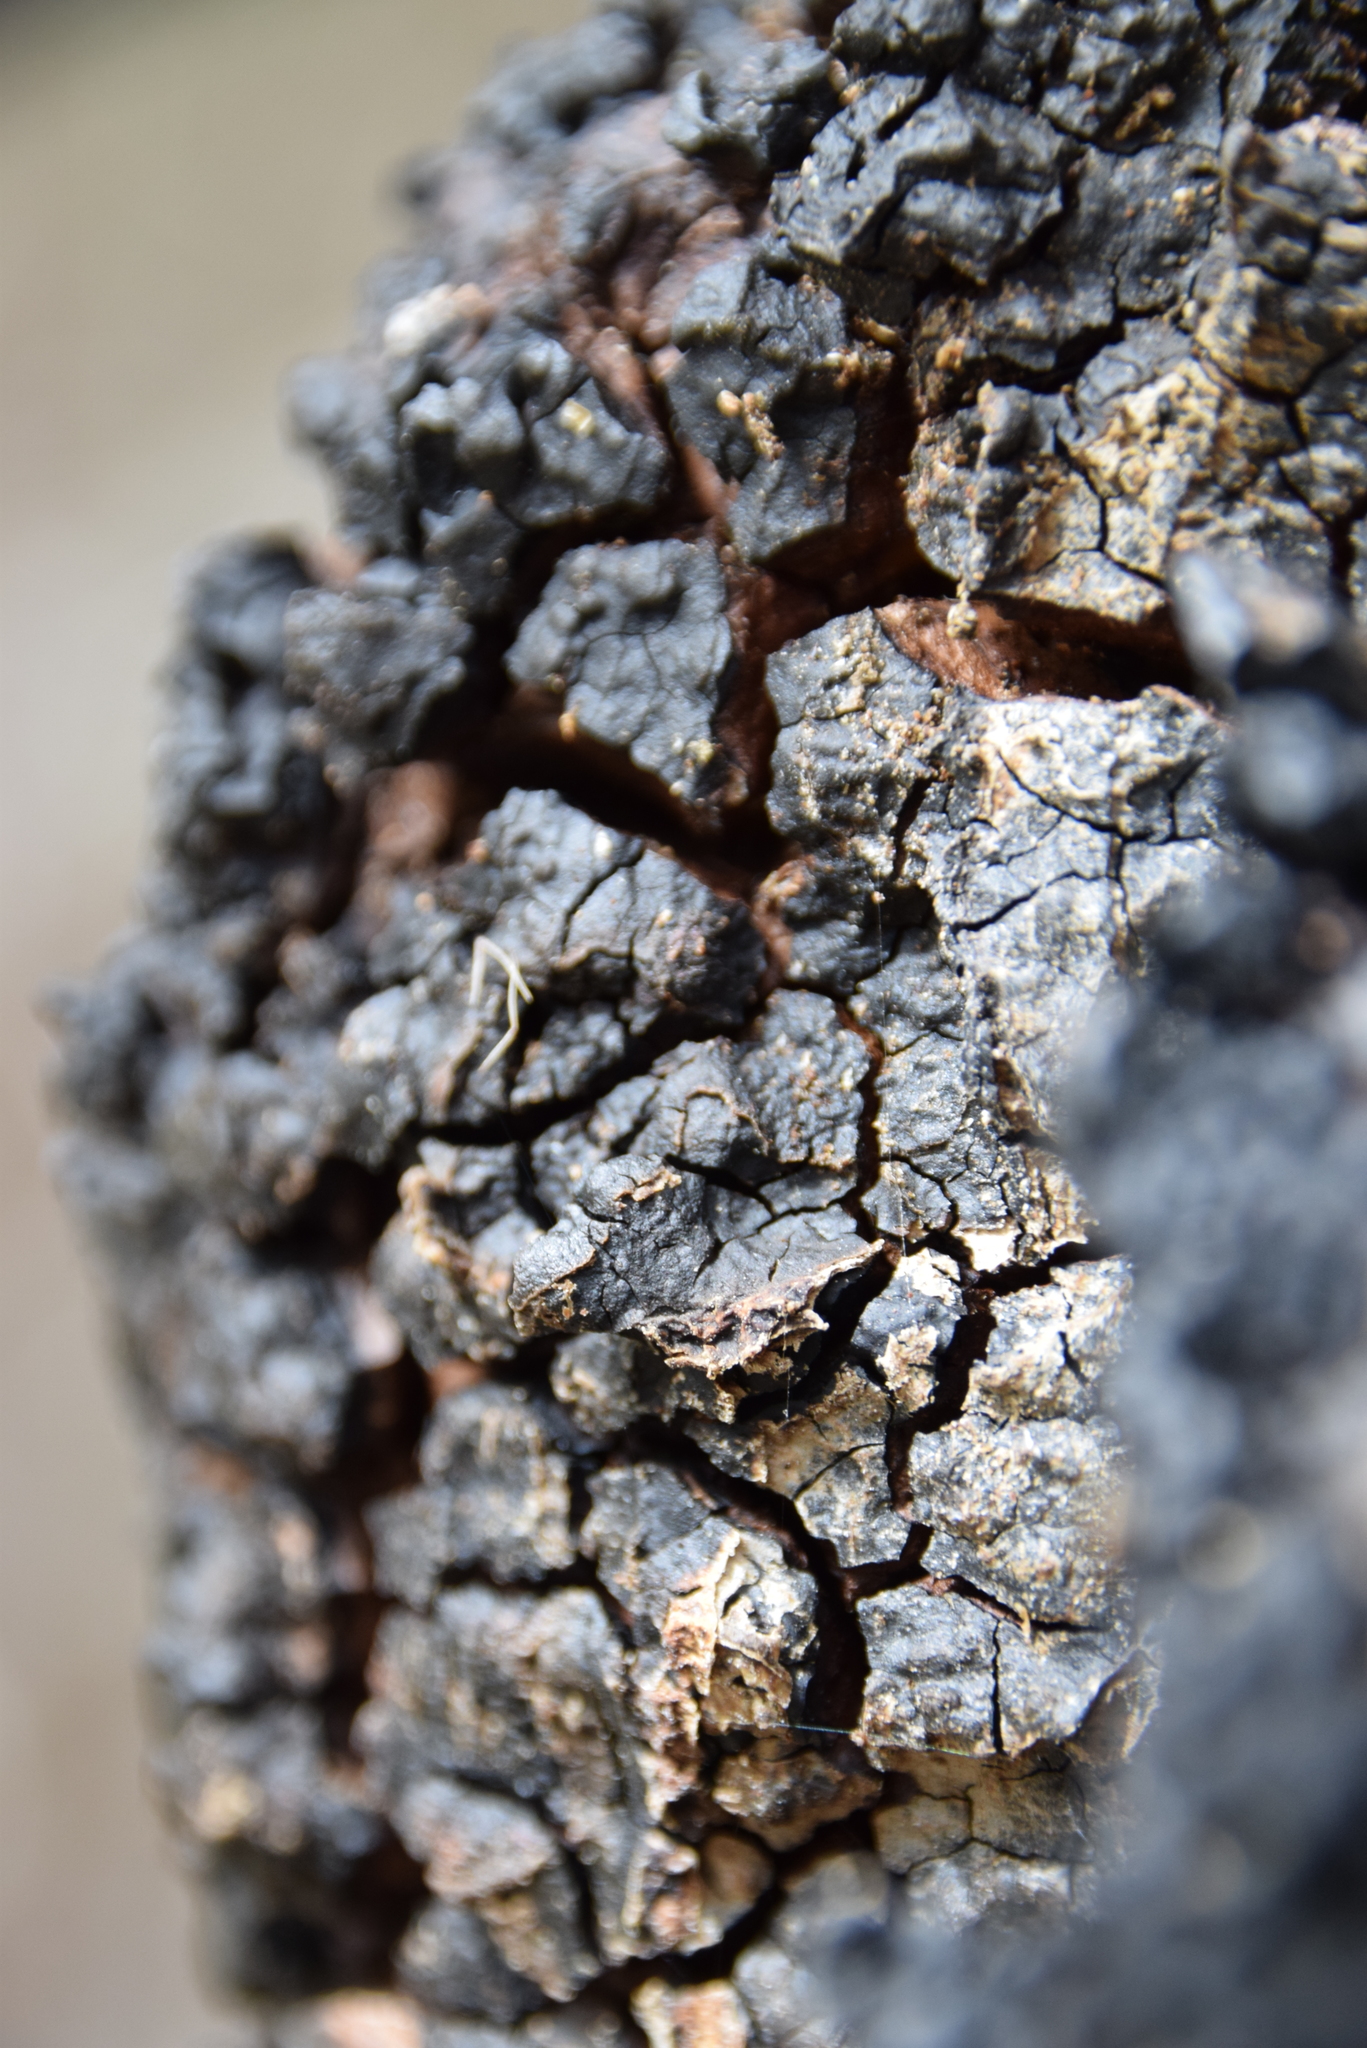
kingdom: Fungi
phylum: Basidiomycota
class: Agaricomycetes
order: Hymenochaetales
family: Hymenochaetaceae
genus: Inonotus
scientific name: Inonotus obliquus
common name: Chaga
